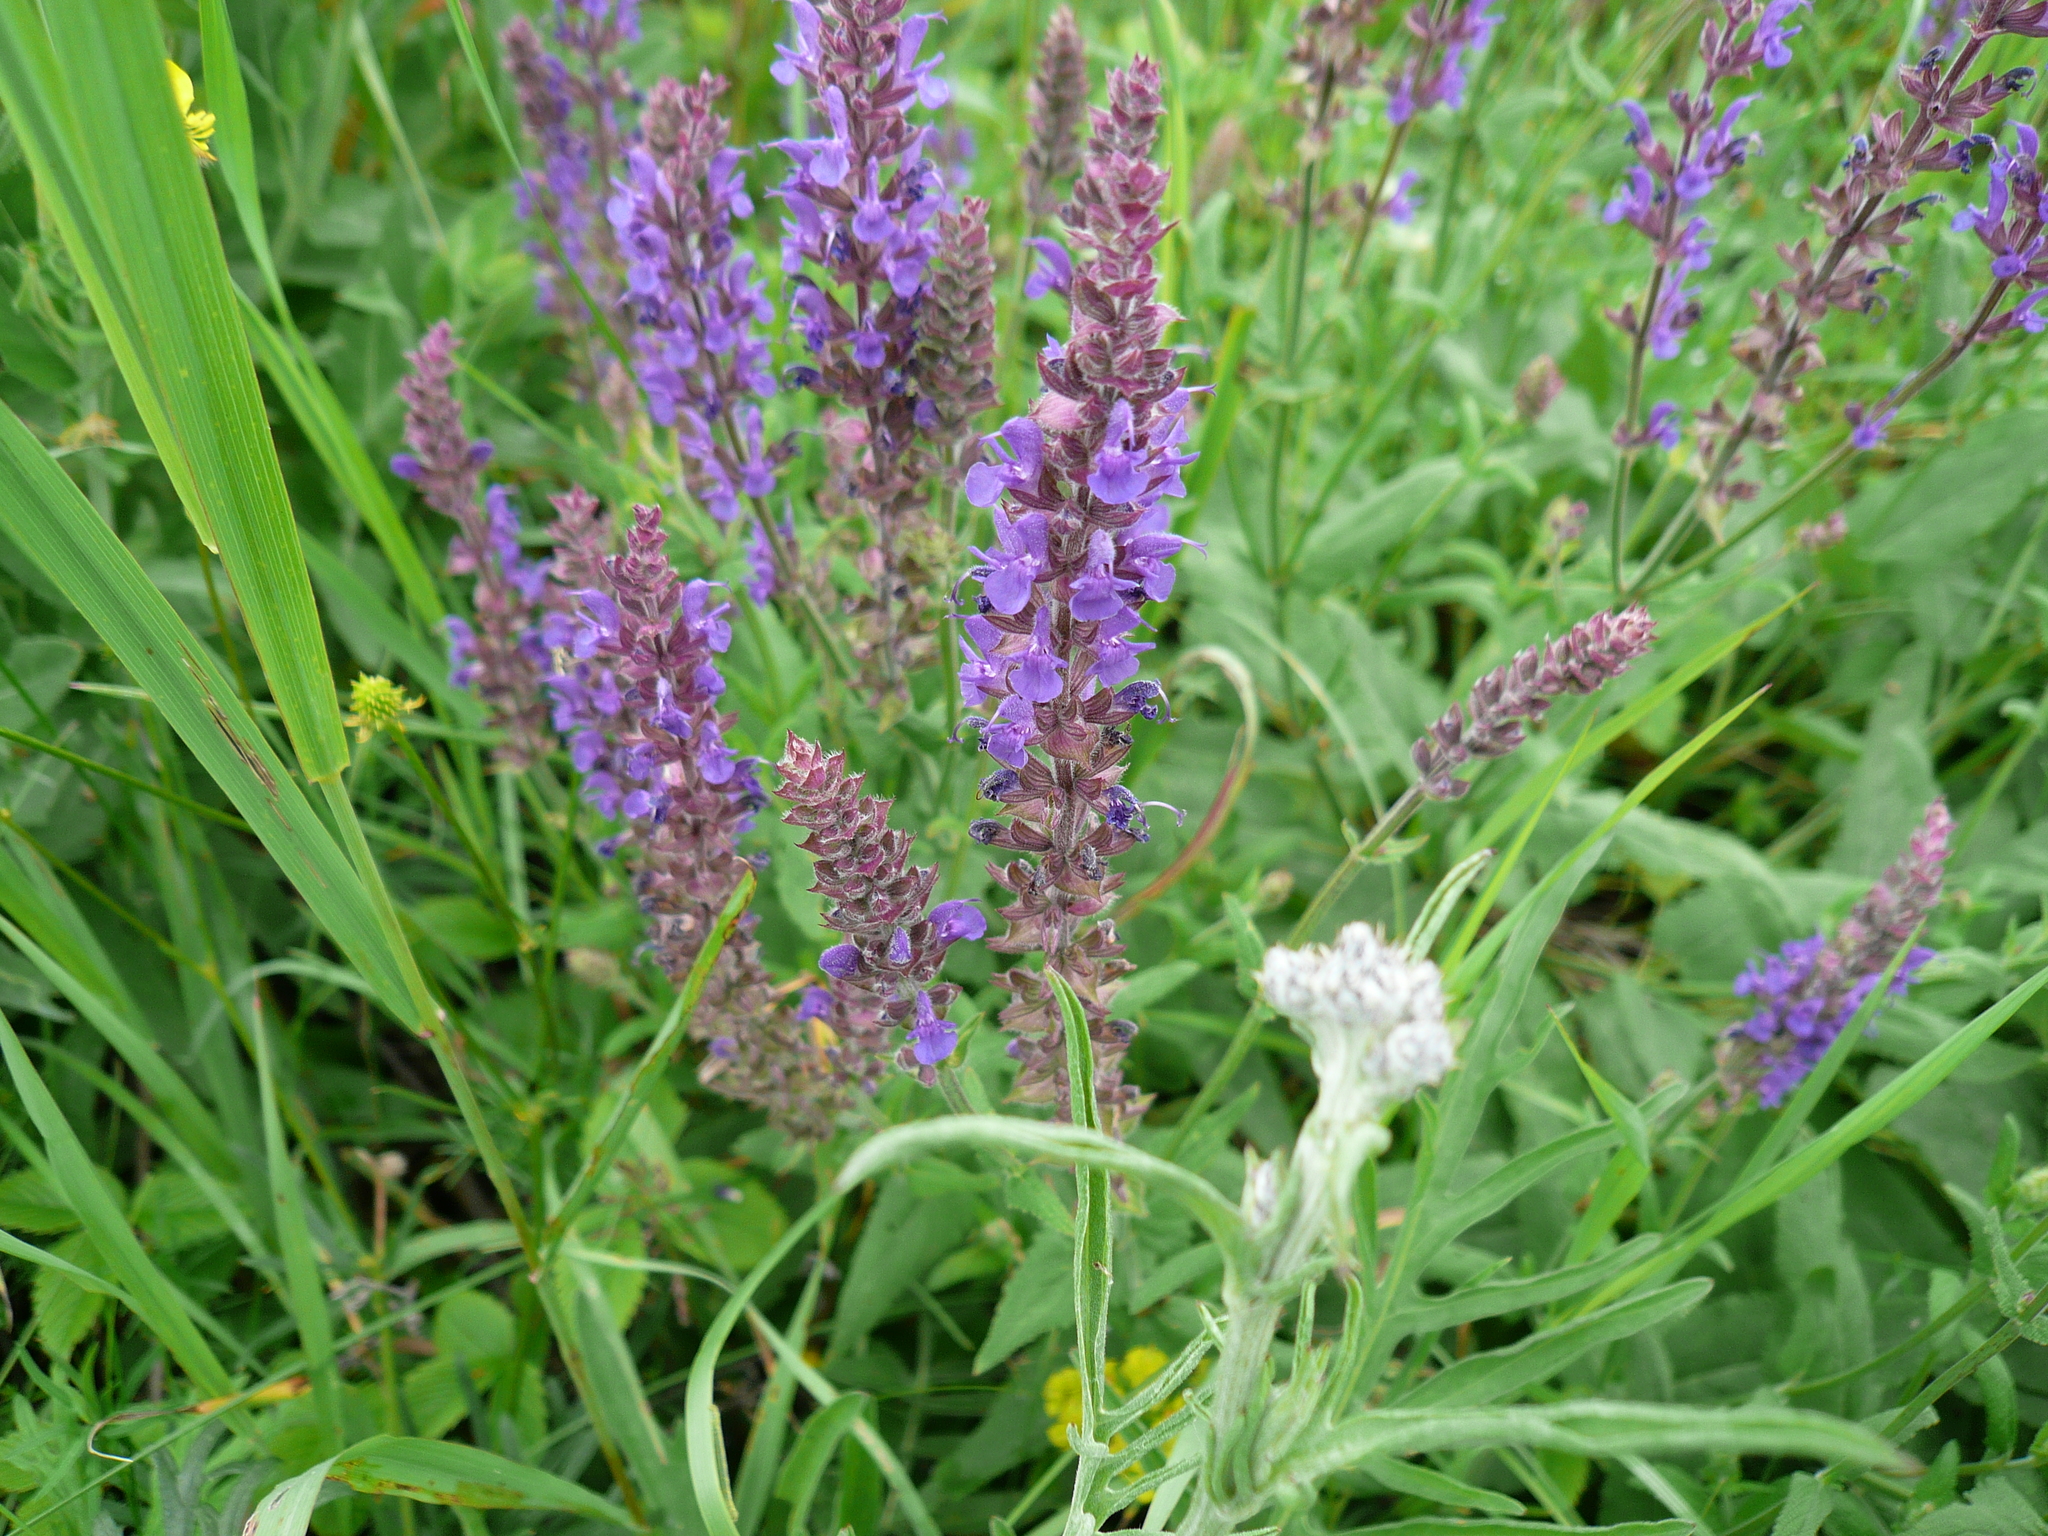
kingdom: Plantae
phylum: Tracheophyta
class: Magnoliopsida
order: Lamiales
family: Lamiaceae
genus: Salvia
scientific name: Salvia nemorosa
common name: Balkan clary
